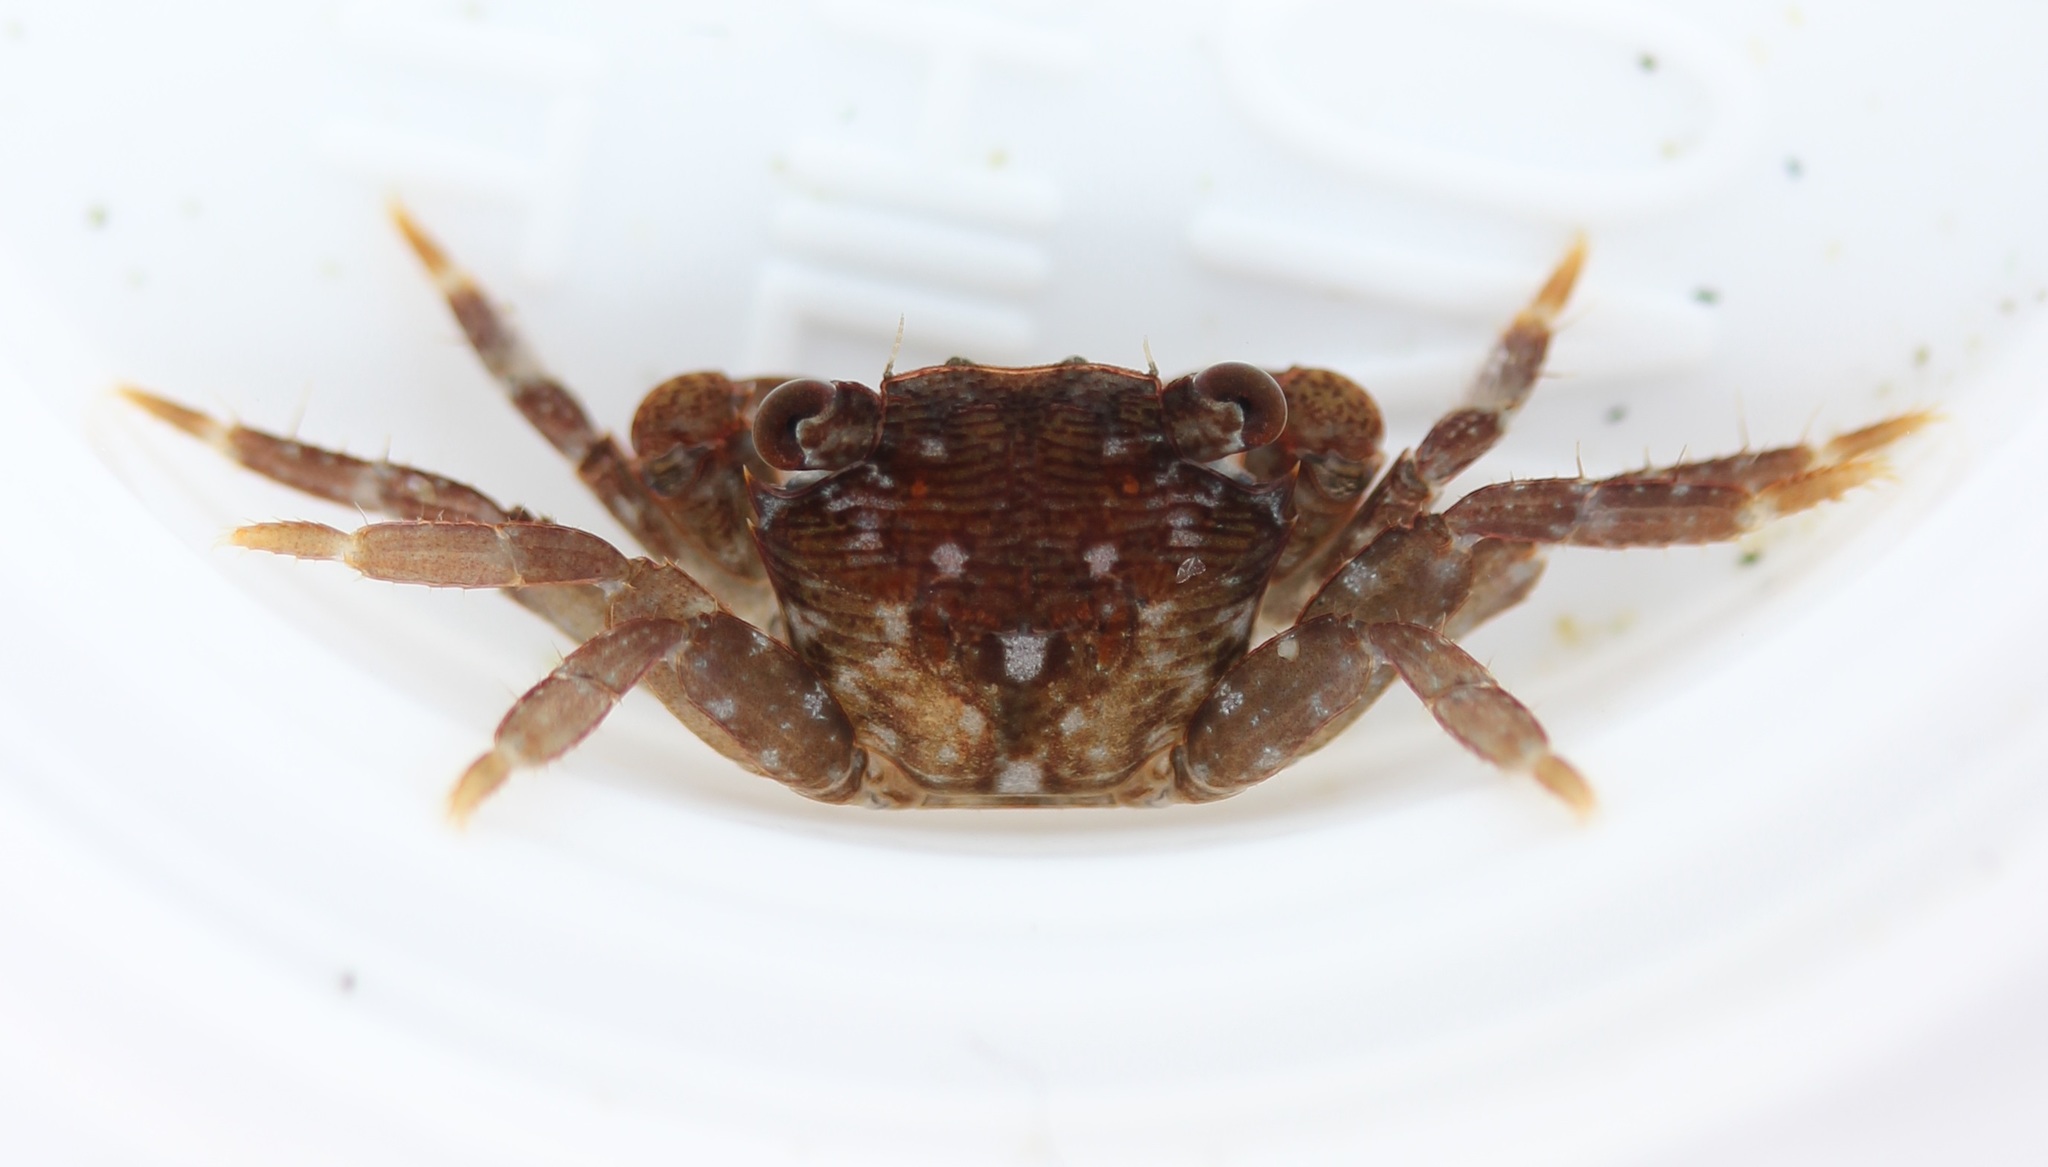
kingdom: Animalia
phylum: Arthropoda
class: Malacostraca
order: Decapoda
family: Grapsidae
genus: Pachygrapsus
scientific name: Pachygrapsus crassipes
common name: Striped shore crab
